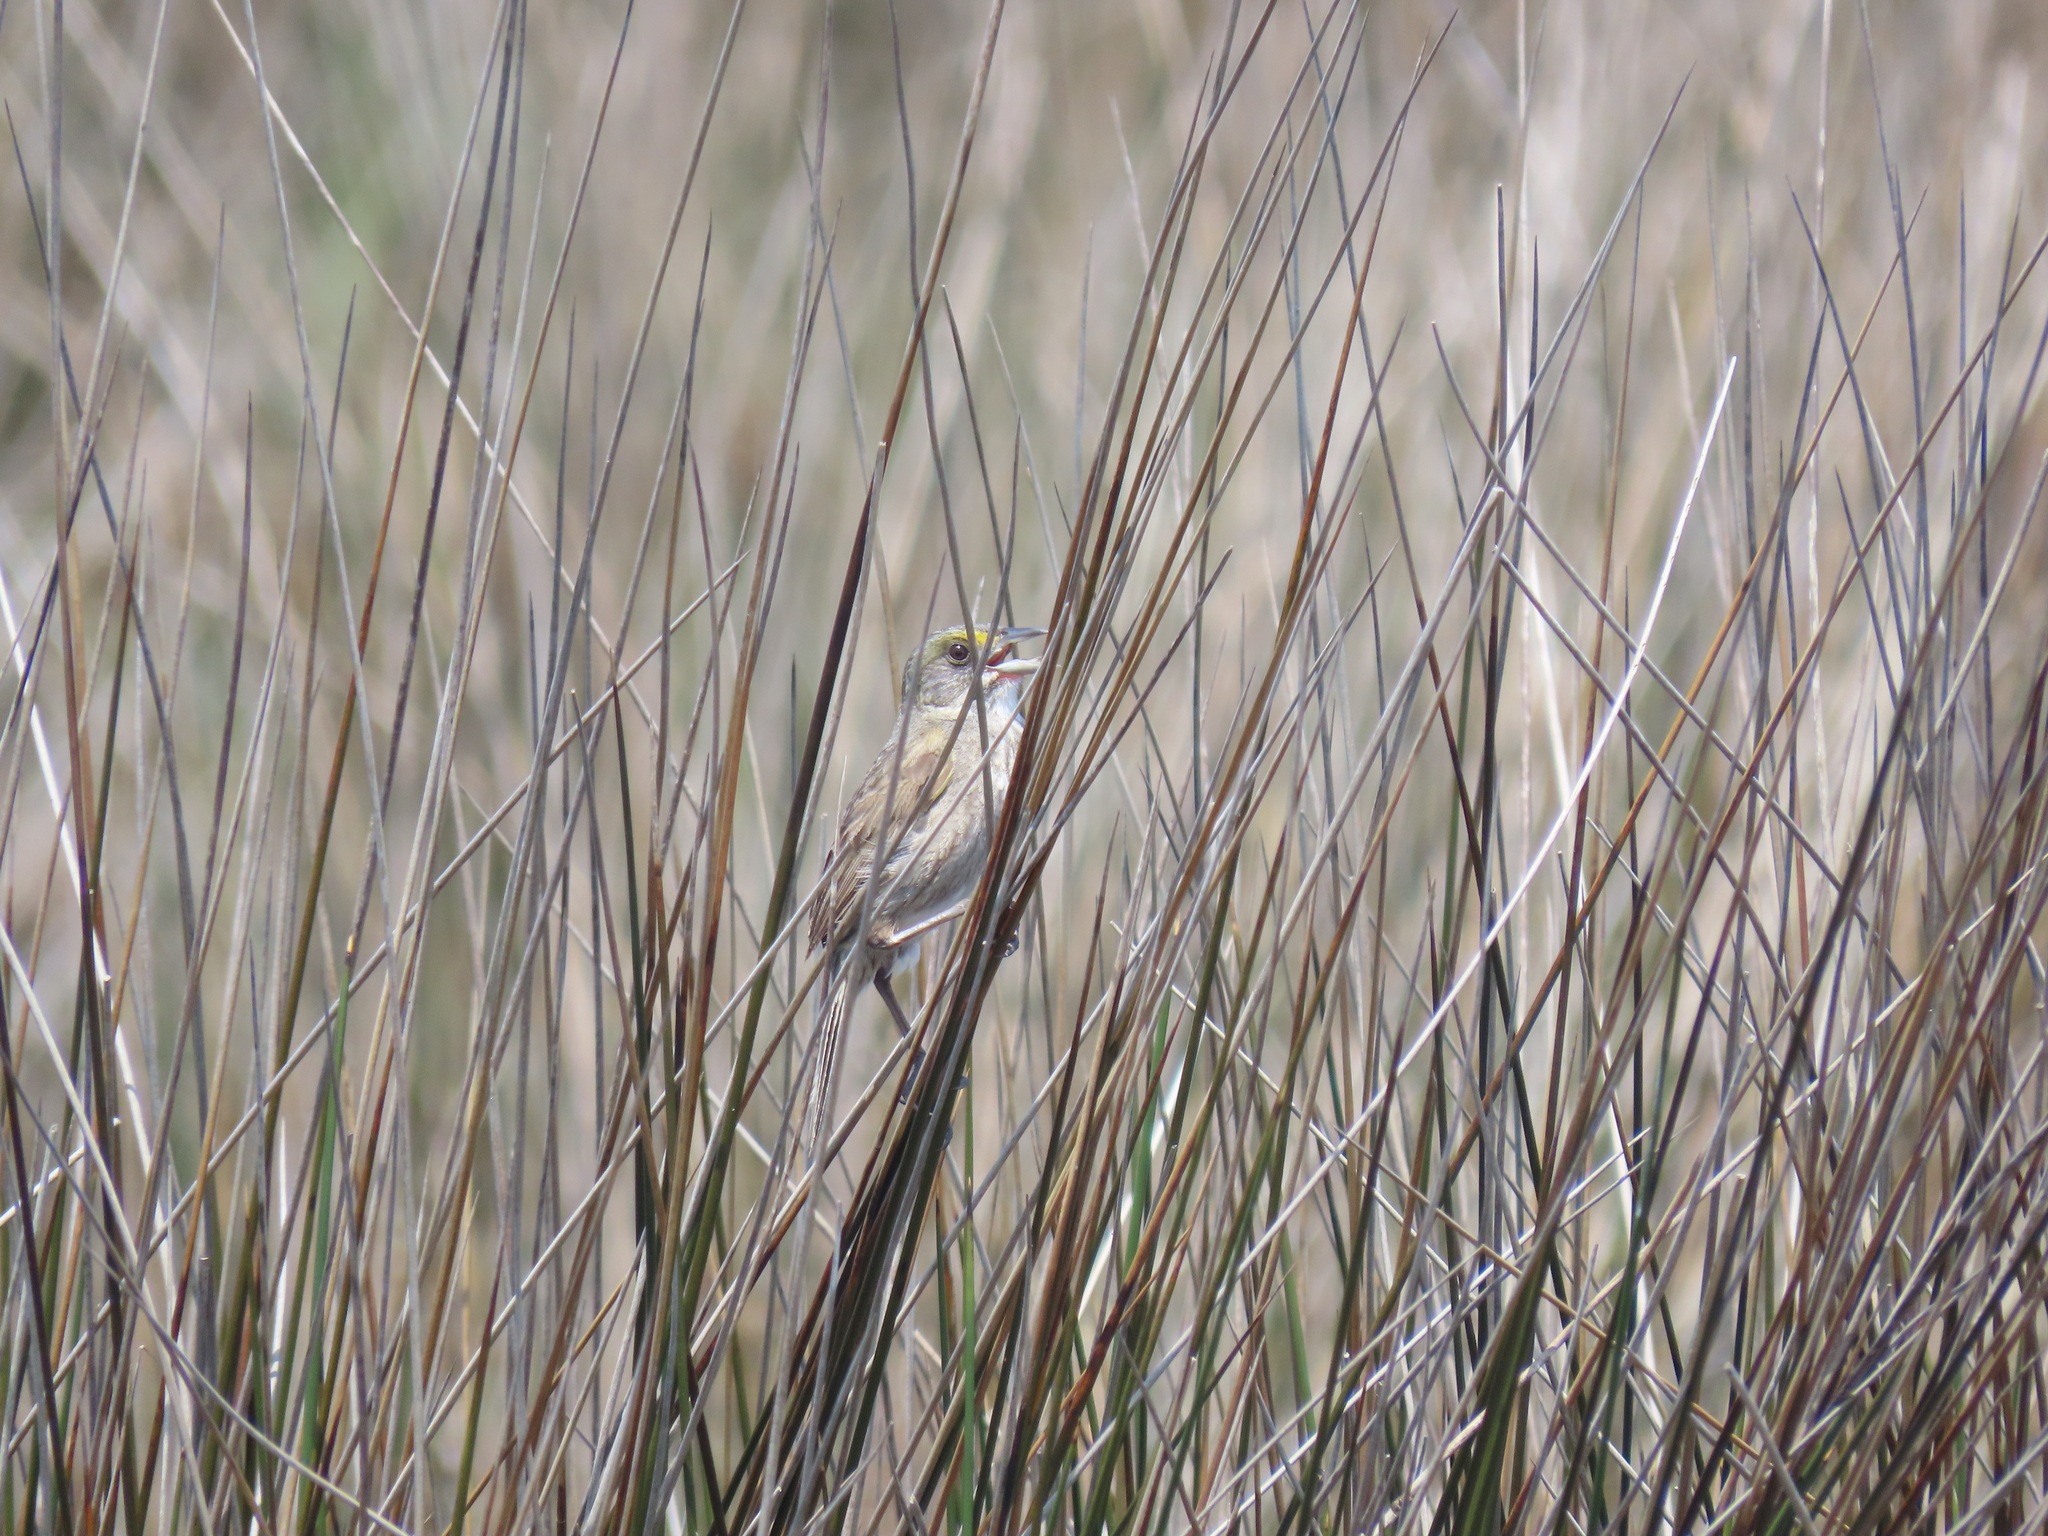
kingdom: Animalia
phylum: Chordata
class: Aves
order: Passeriformes
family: Passerellidae
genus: Ammospiza
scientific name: Ammospiza maritima
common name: Seaside sparrow
